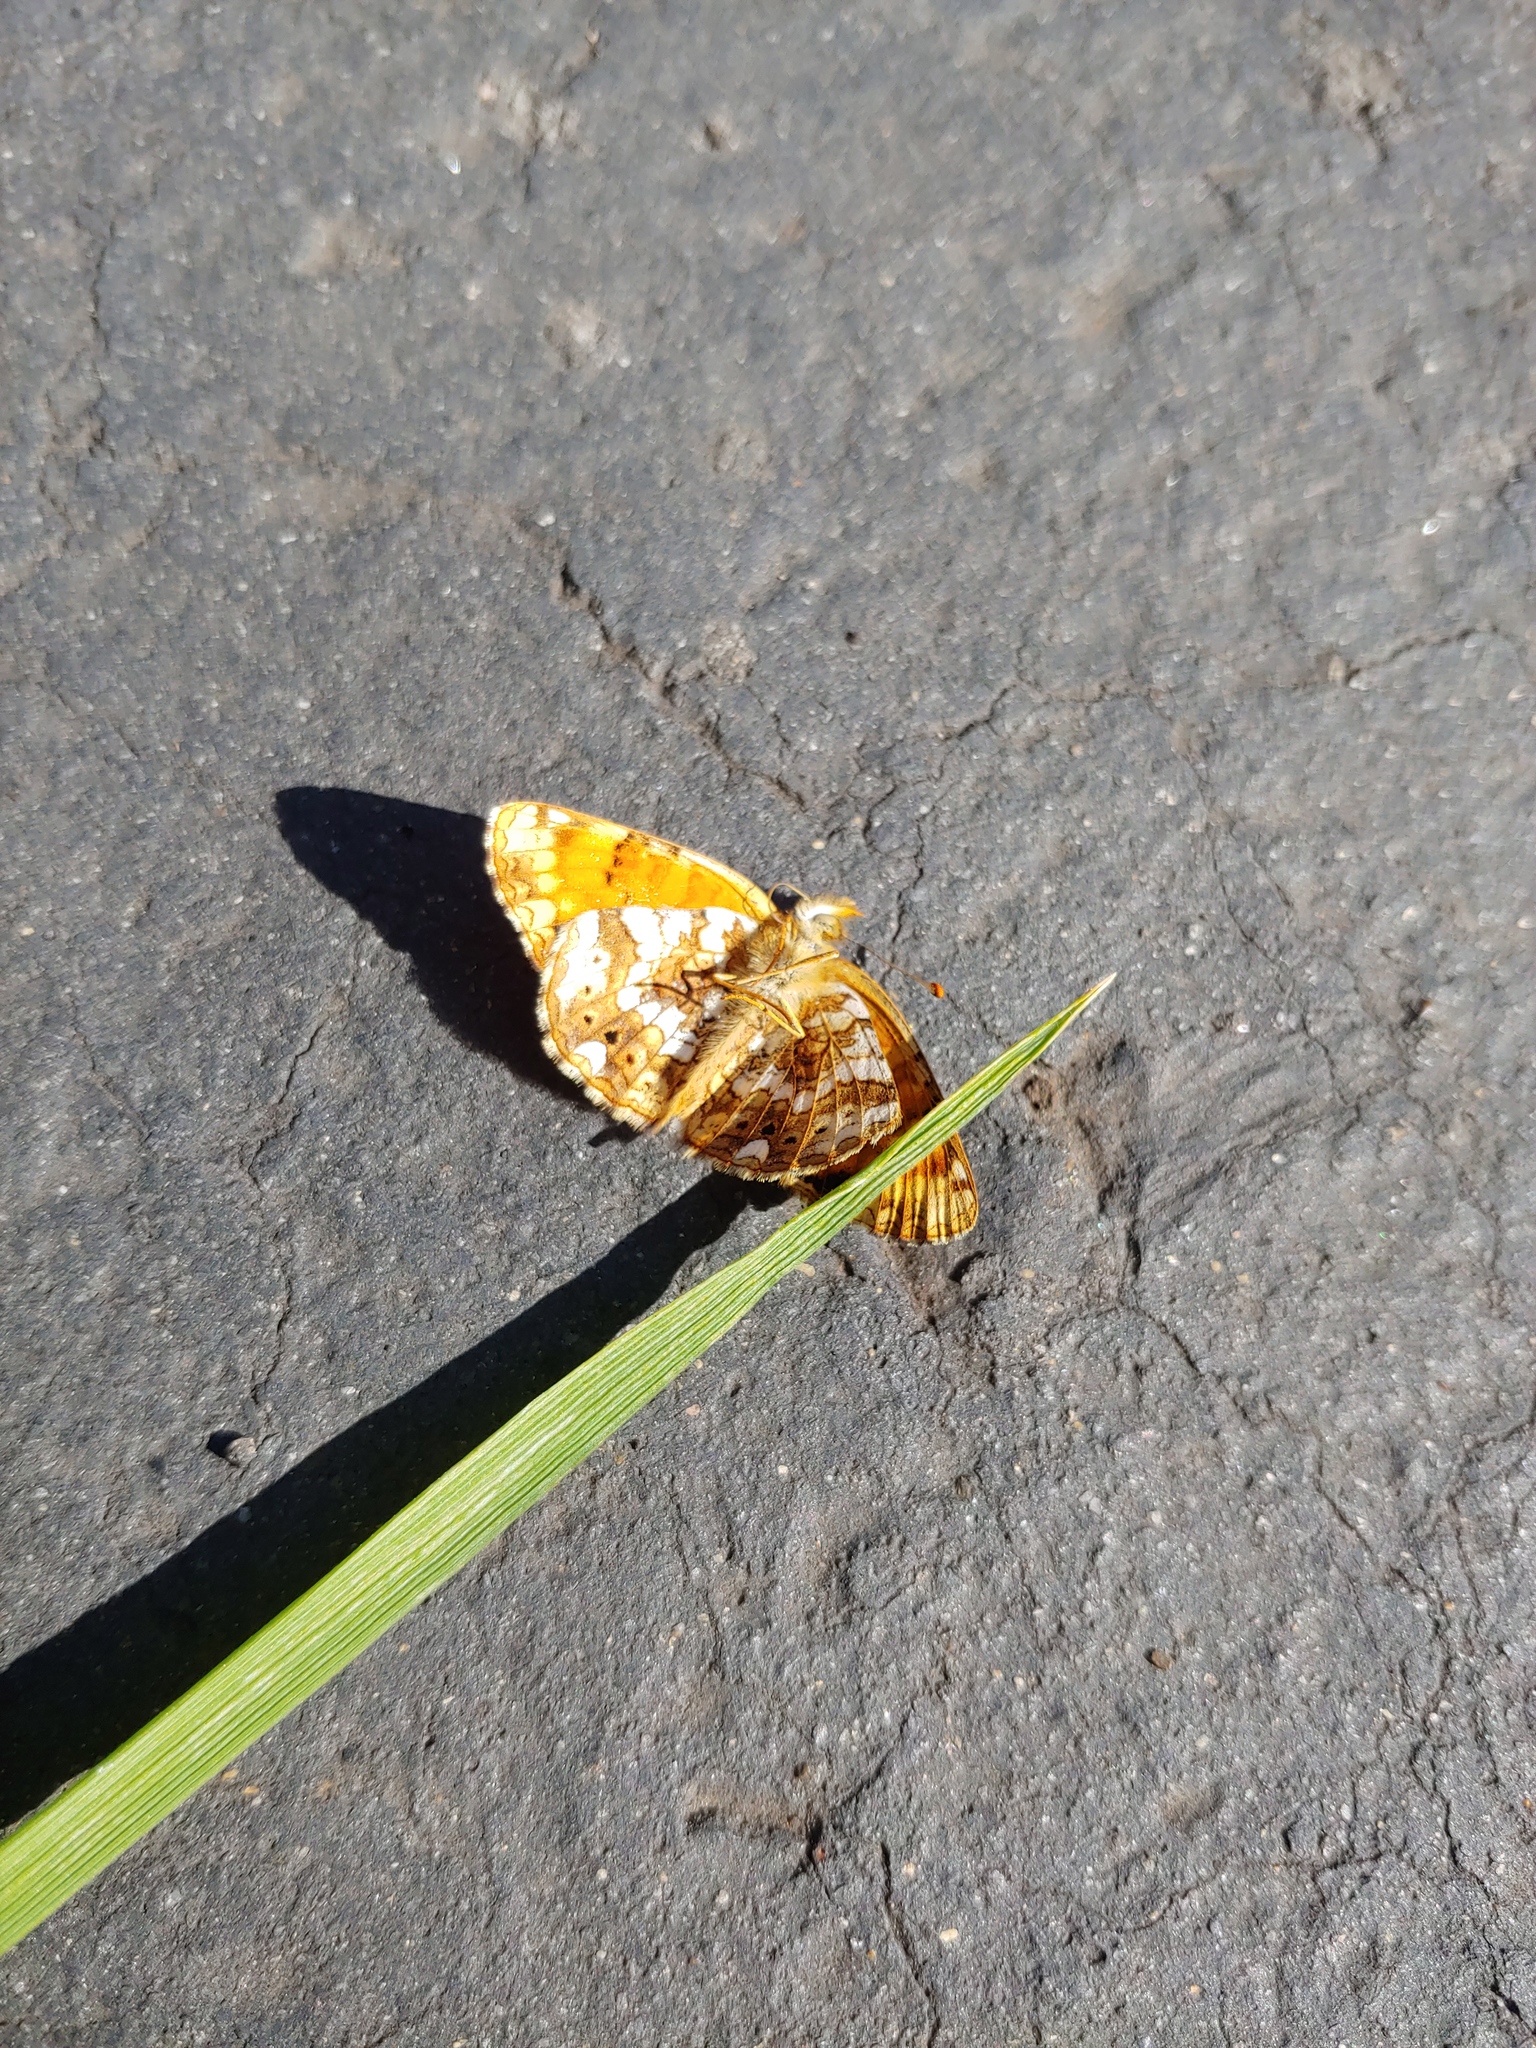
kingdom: Animalia
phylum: Arthropoda
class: Insecta
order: Lepidoptera
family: Nymphalidae
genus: Eresia
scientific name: Eresia aveyrona
